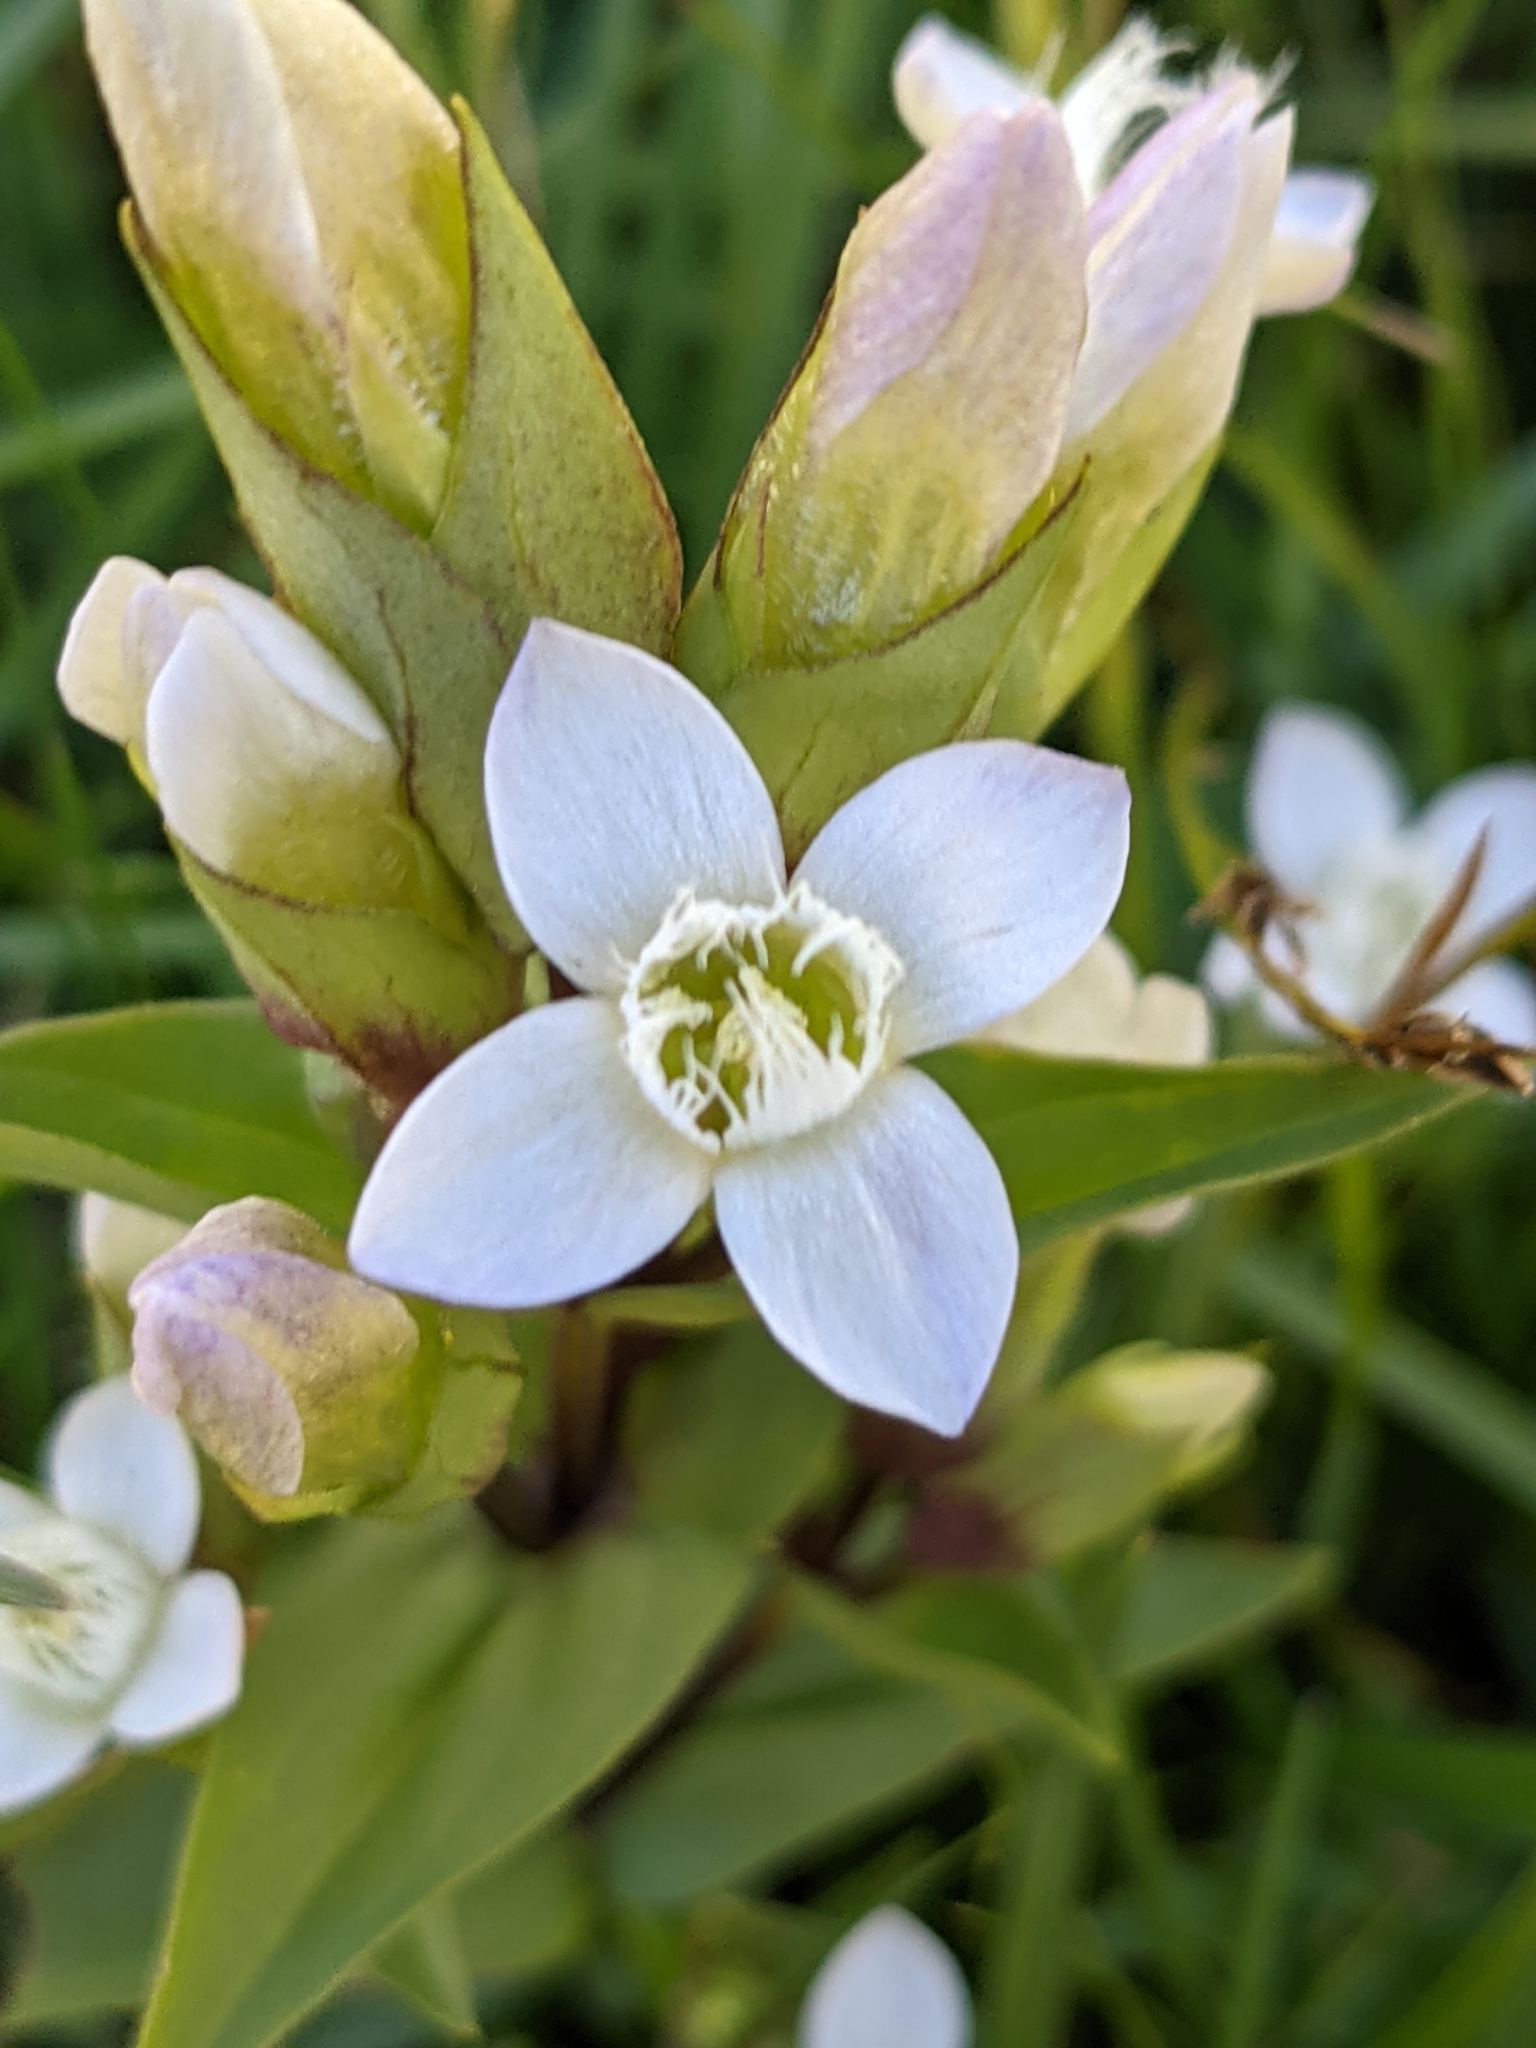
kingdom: Plantae
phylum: Tracheophyta
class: Magnoliopsida
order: Gentianales
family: Gentianaceae
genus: Gentianella
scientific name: Gentianella campestris
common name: Field gentian
